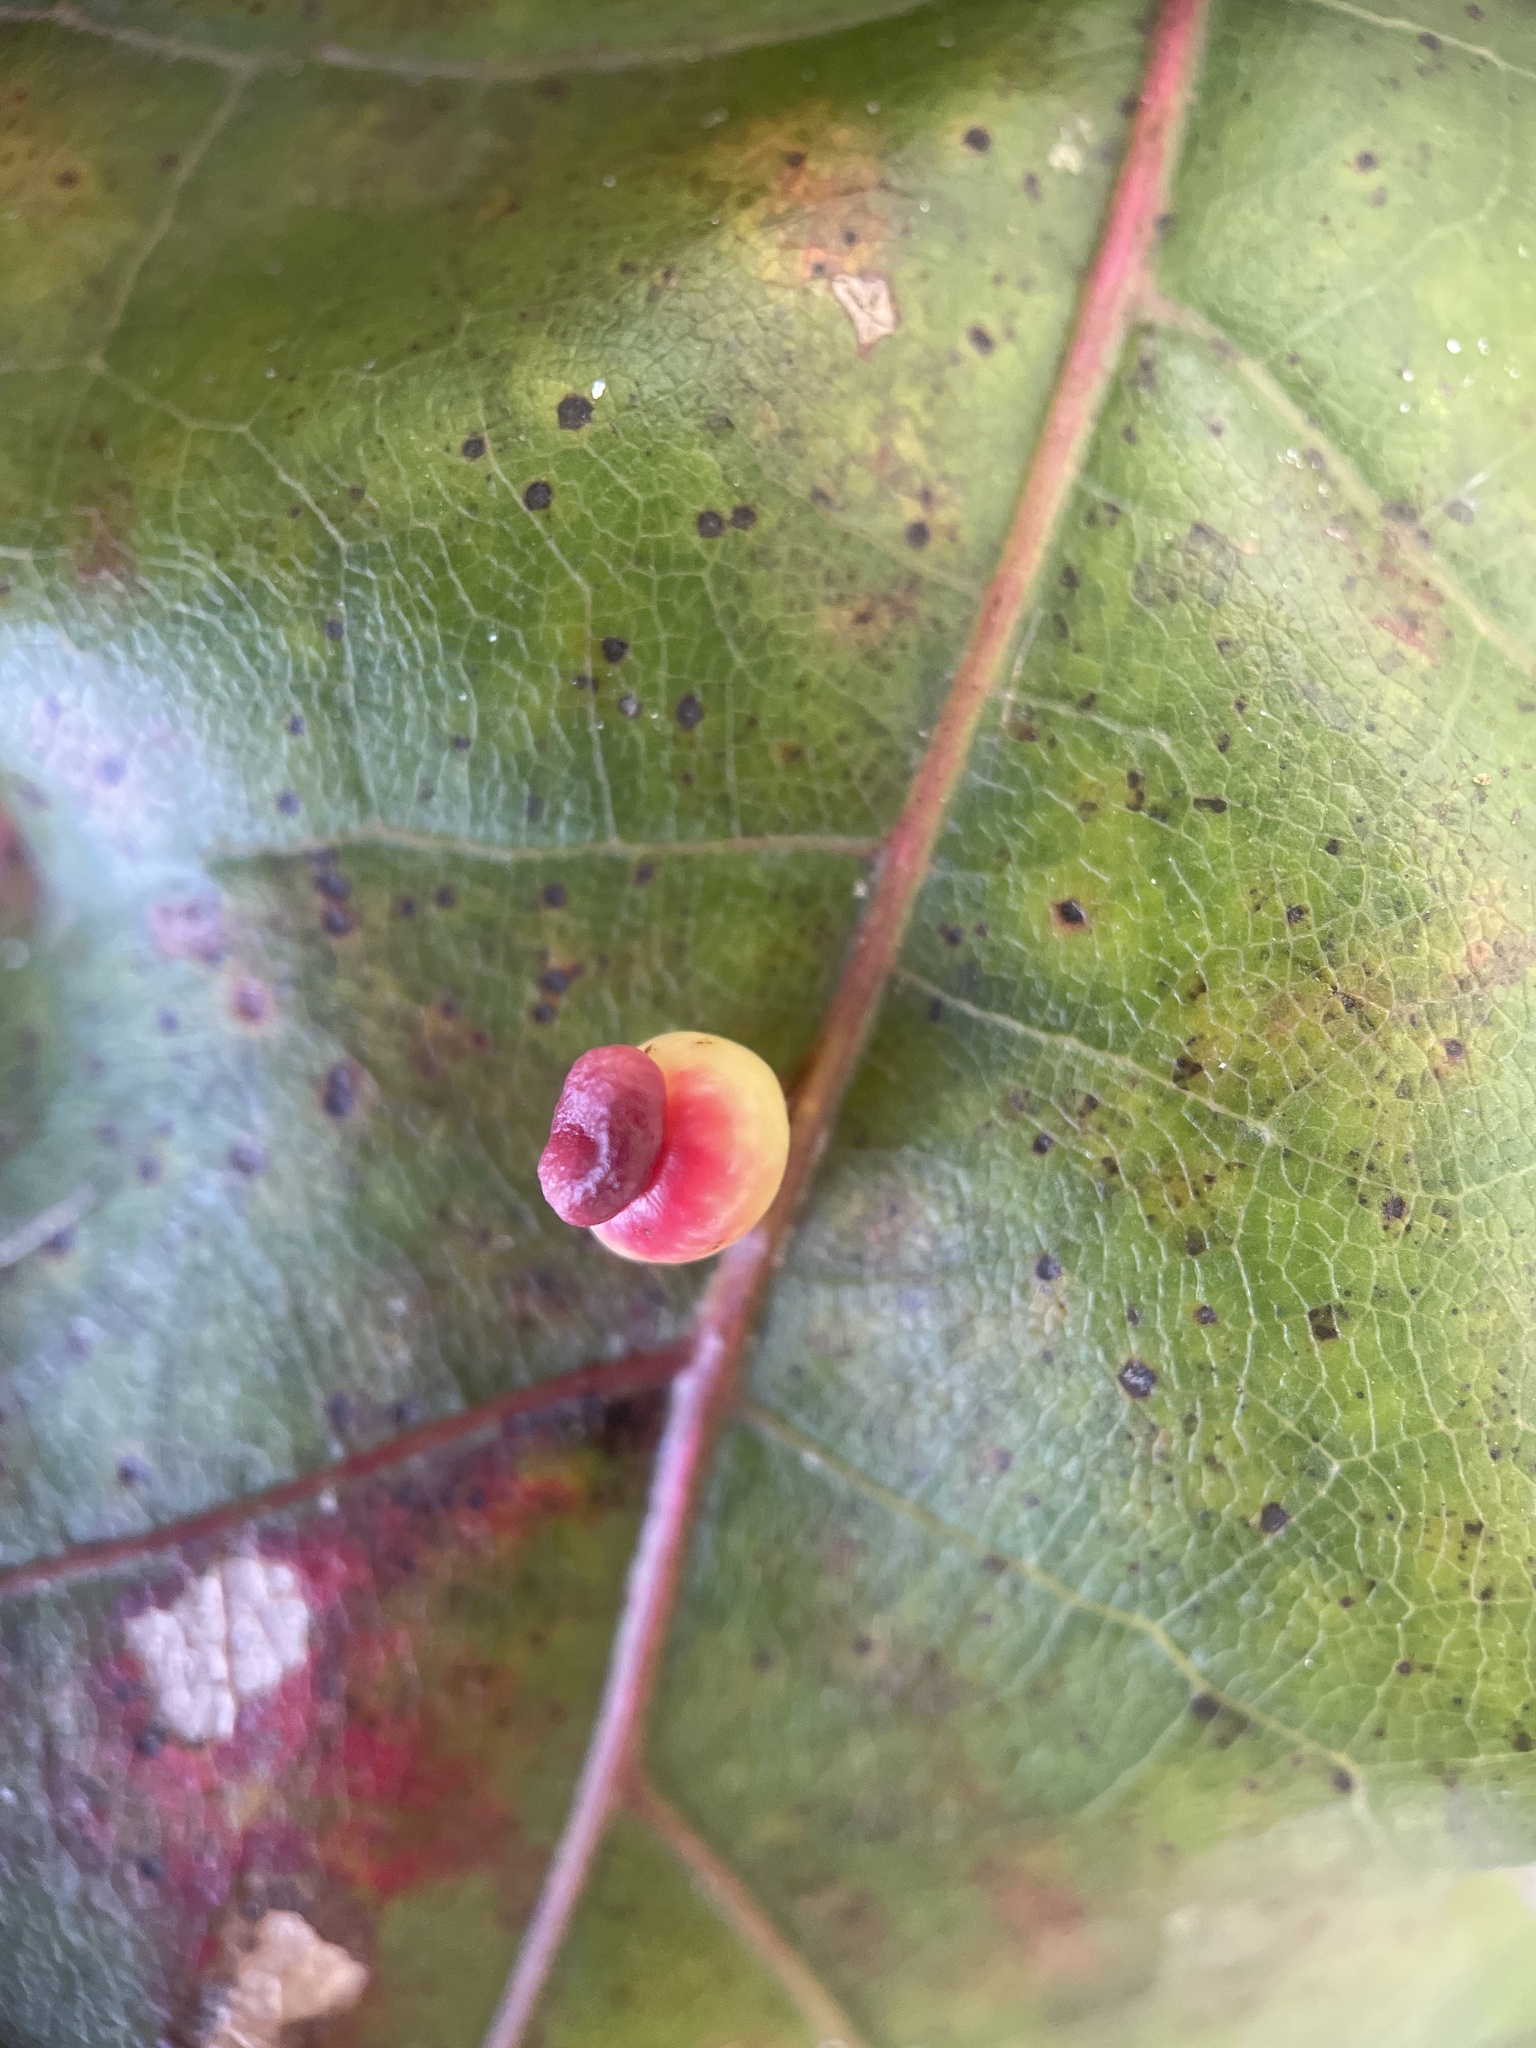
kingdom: Animalia
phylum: Arthropoda
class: Insecta
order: Hymenoptera
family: Cynipidae
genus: Kokkocynips
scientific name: Kokkocynips rileyi
